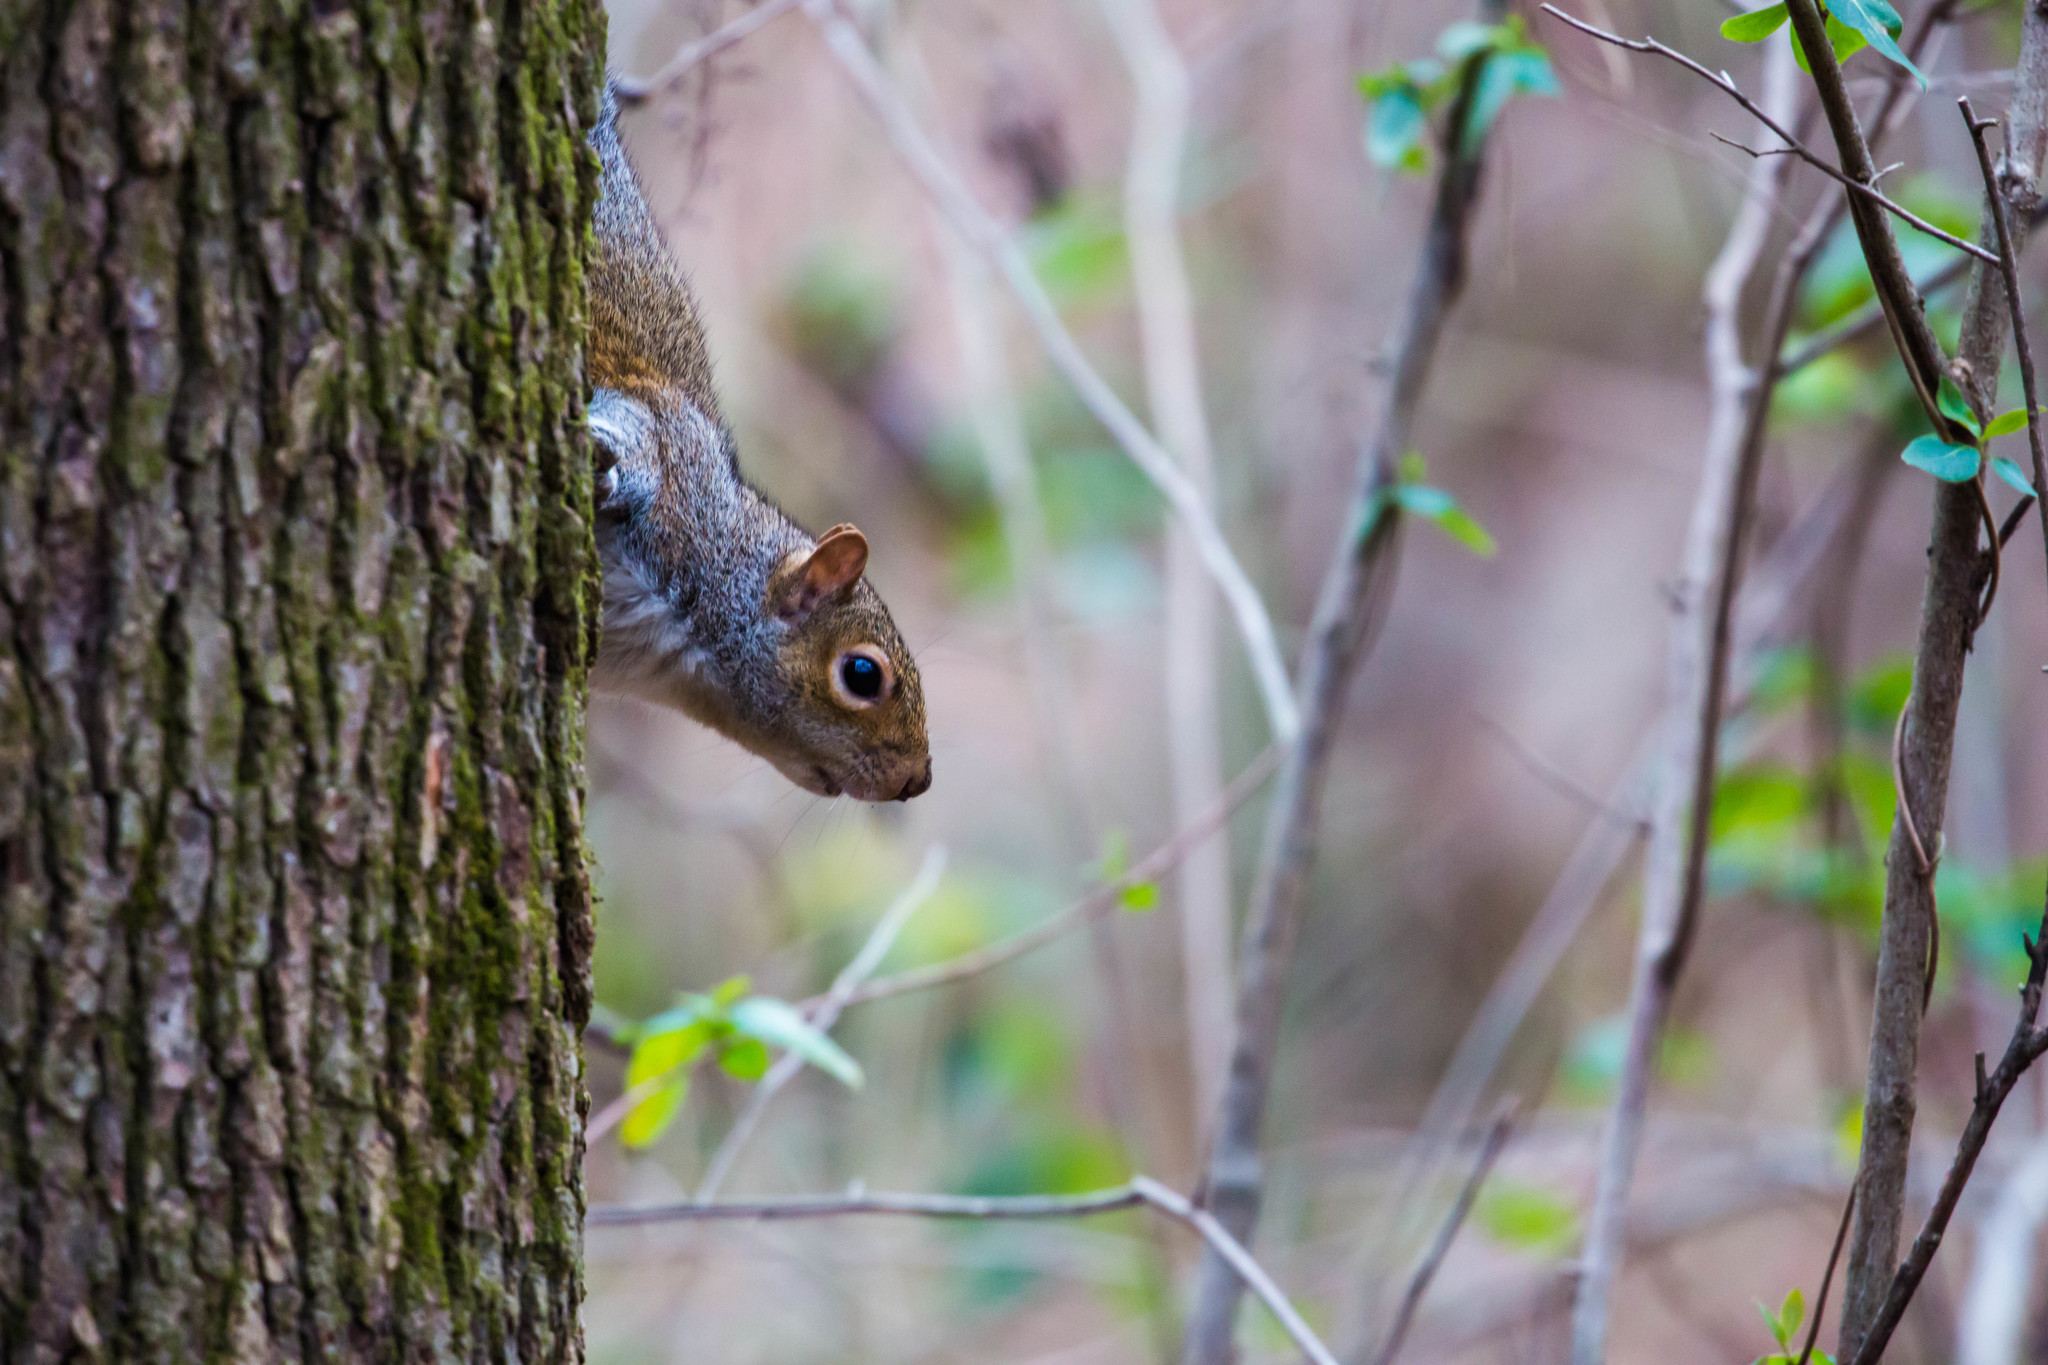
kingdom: Animalia
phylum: Chordata
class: Mammalia
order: Rodentia
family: Sciuridae
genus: Sciurus
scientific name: Sciurus carolinensis
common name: Eastern gray squirrel
